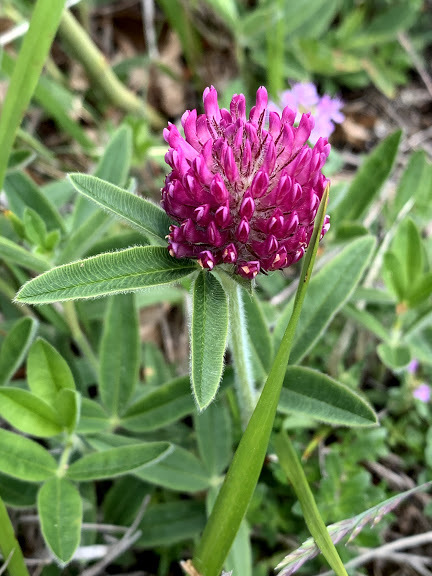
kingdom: Plantae
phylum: Tracheophyta
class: Magnoliopsida
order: Fabales
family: Fabaceae
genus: Trifolium
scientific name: Trifolium alpestre
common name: Owl-head clover
